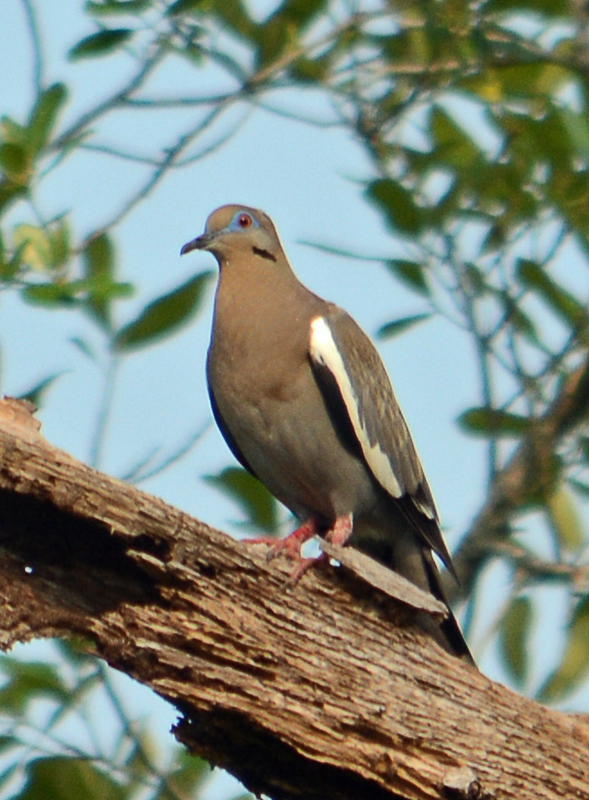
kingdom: Animalia
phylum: Chordata
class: Aves
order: Columbiformes
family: Columbidae
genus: Zenaida
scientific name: Zenaida asiatica
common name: White-winged dove
